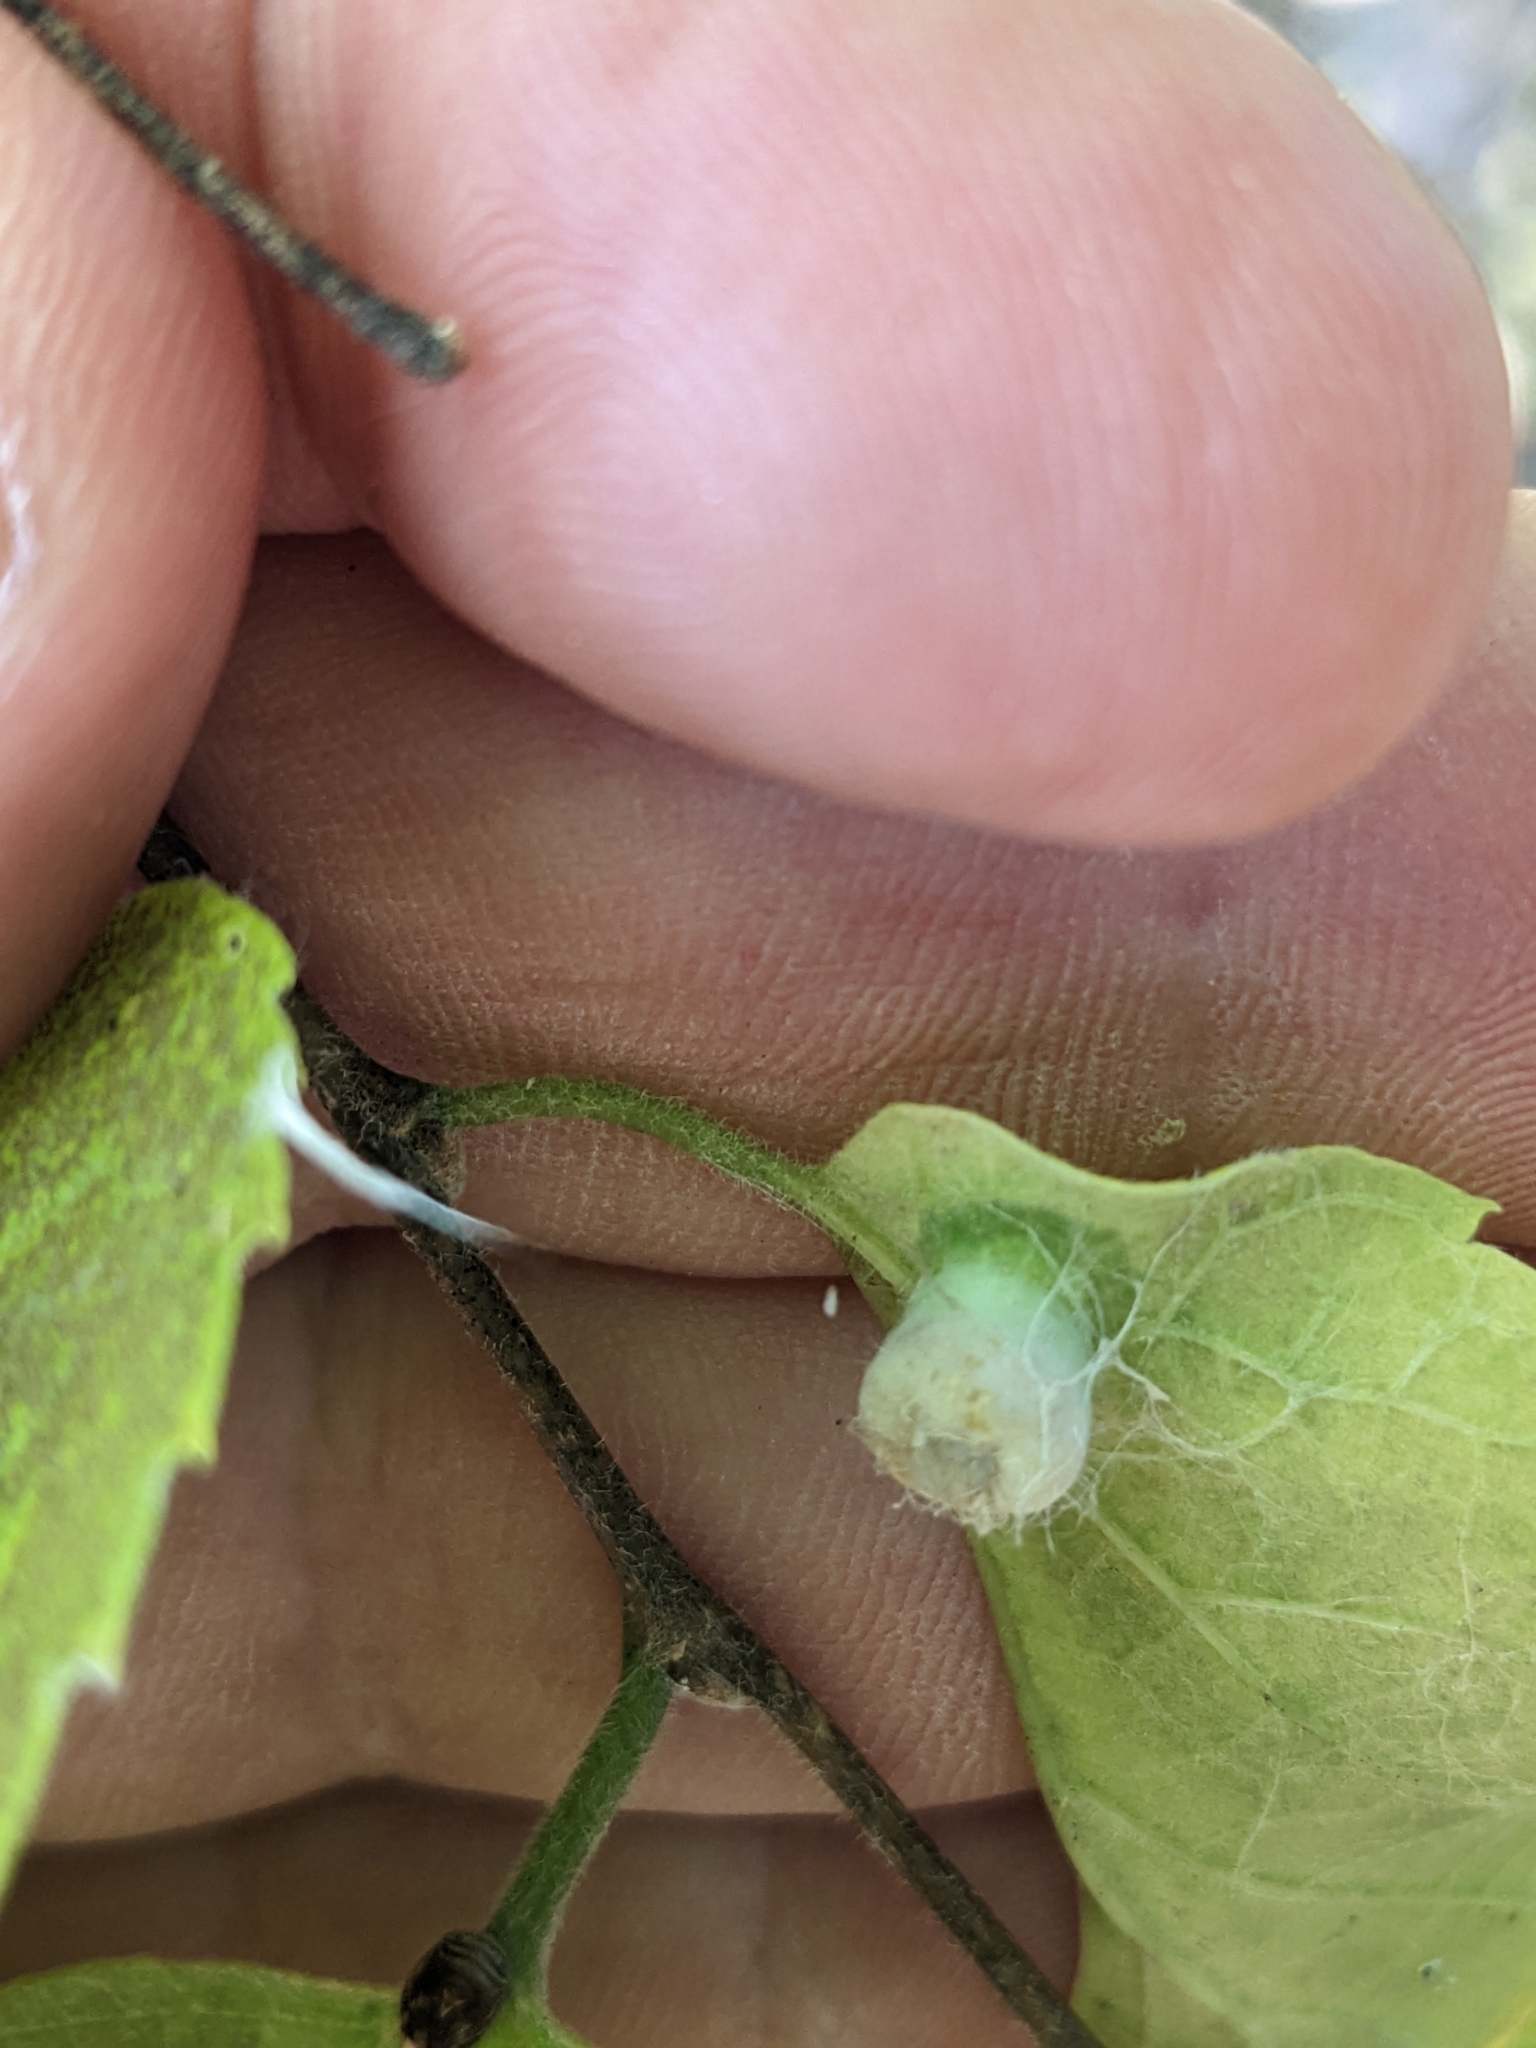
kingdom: Animalia
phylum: Arthropoda
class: Insecta
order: Hemiptera
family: Aphalaridae
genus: Pachypsylla
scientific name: Pachypsylla celtidismamma
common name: Hackberry nipplegall psyllid
